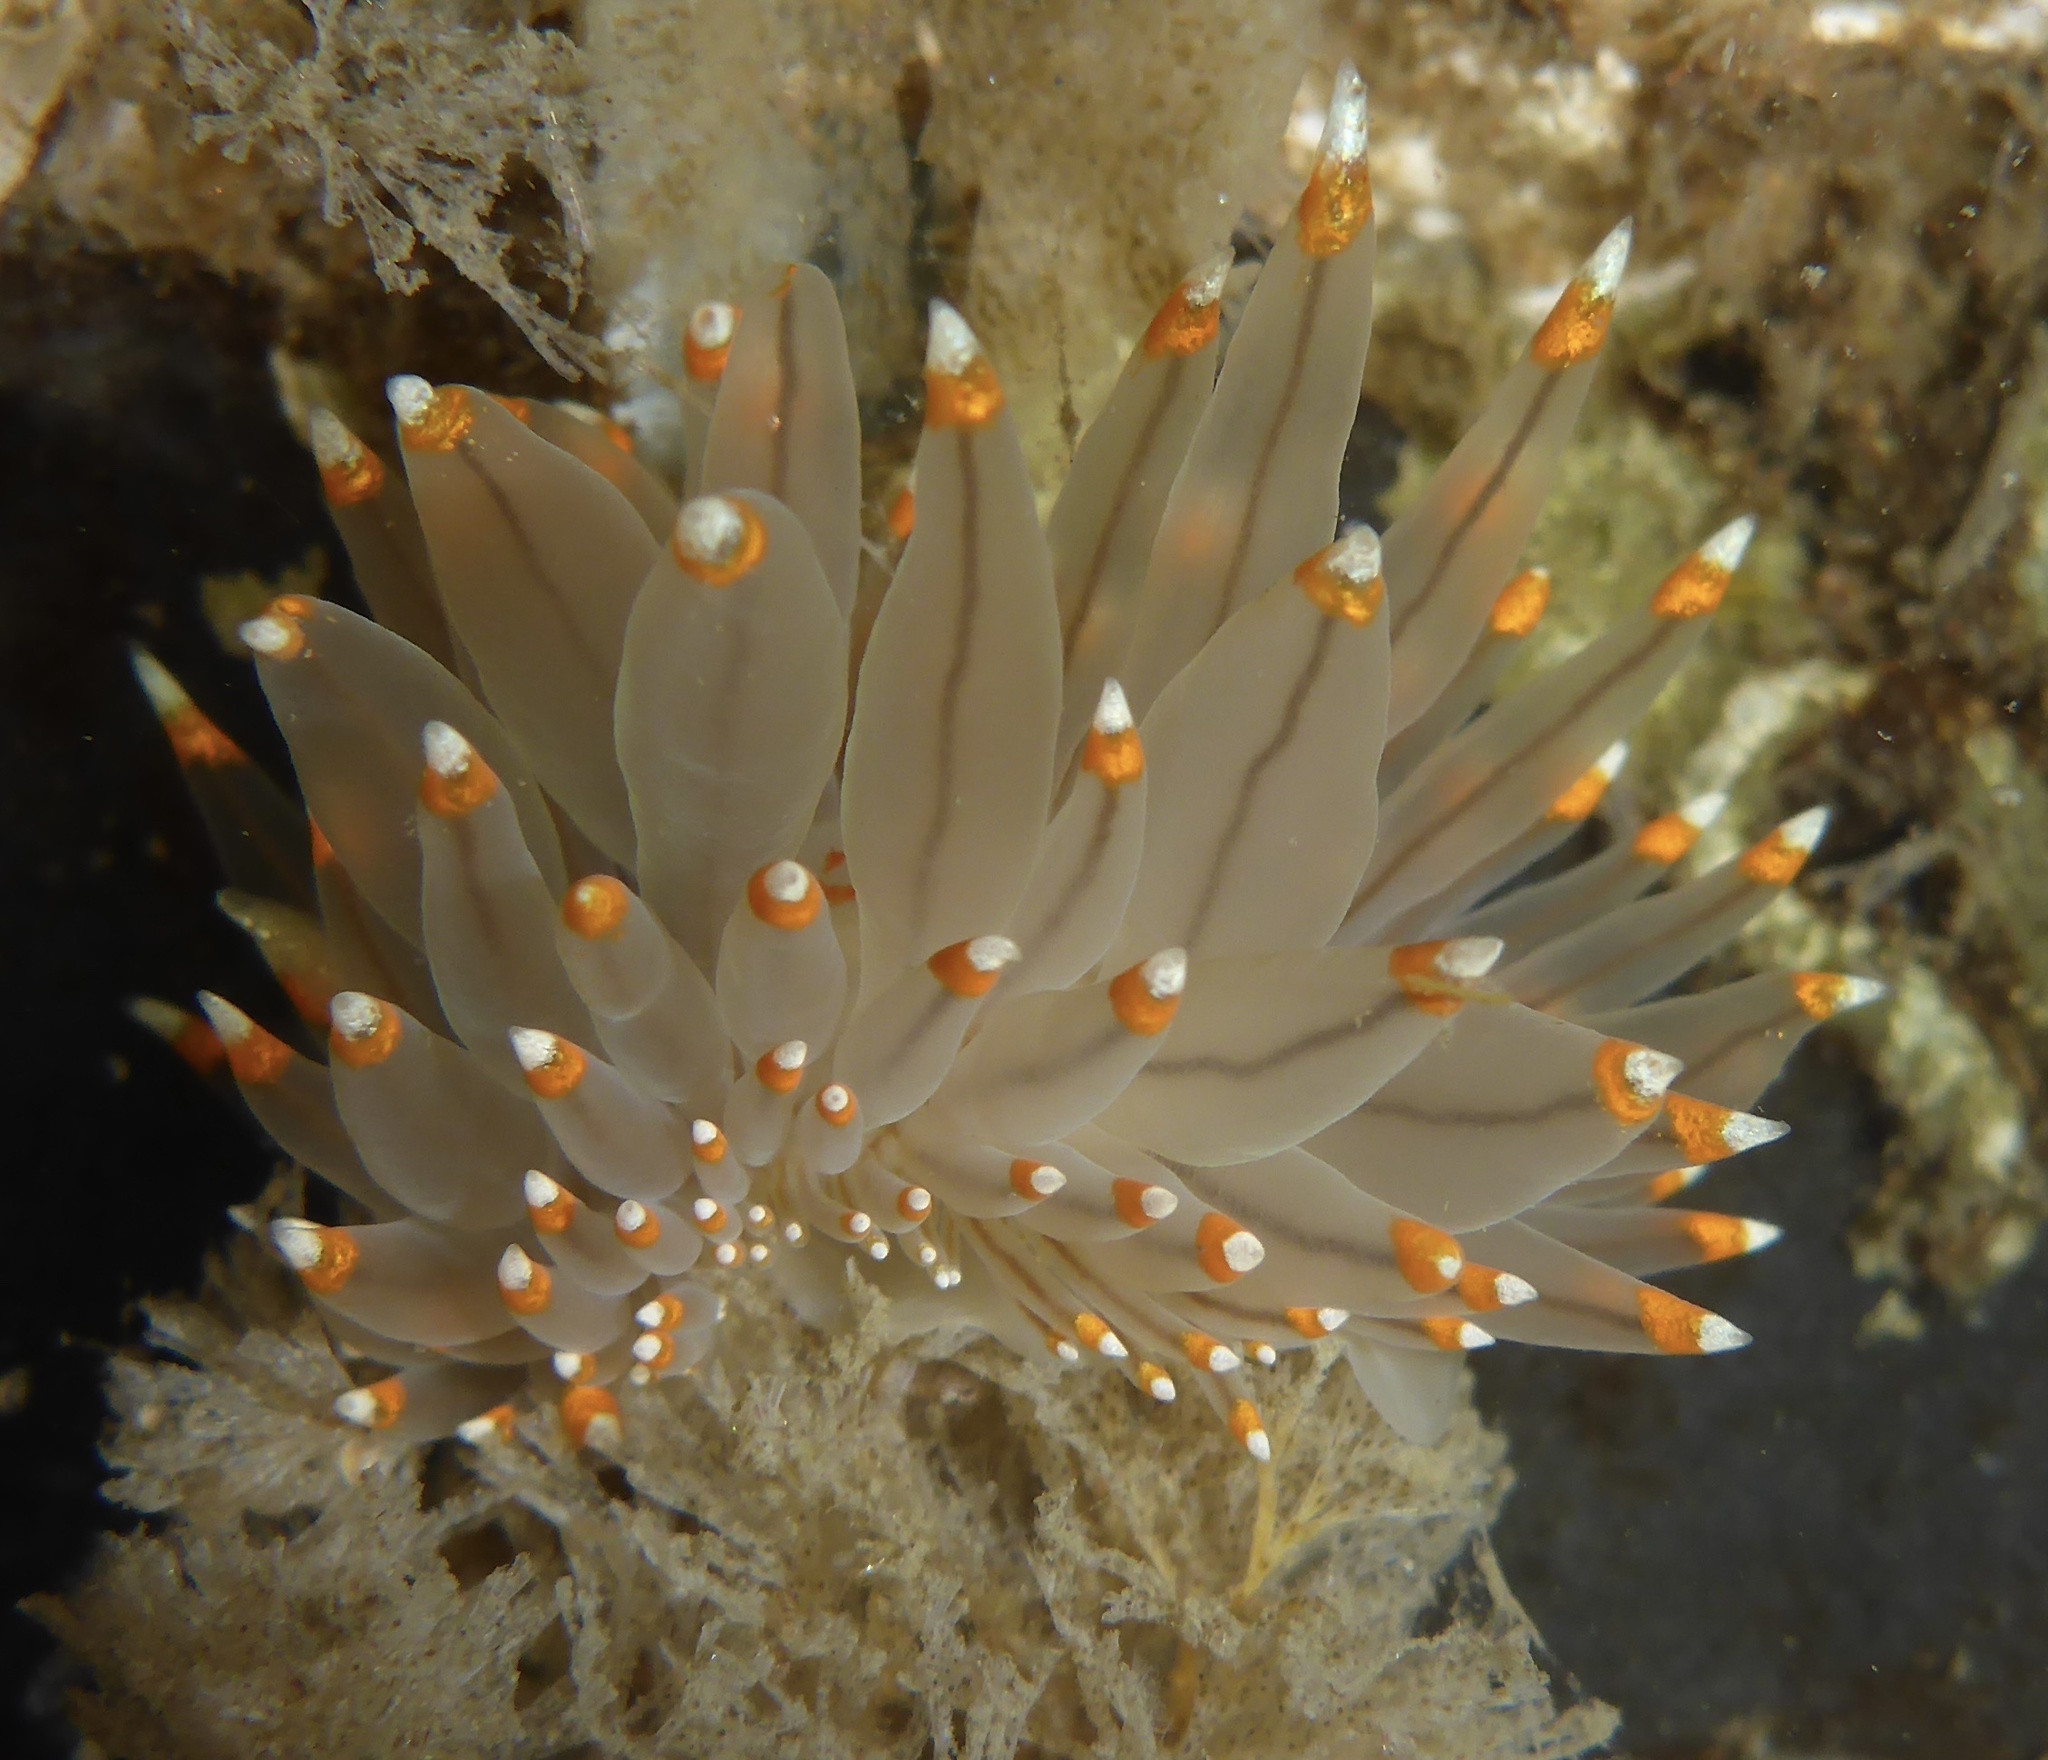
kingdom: Animalia
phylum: Mollusca
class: Gastropoda
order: Nudibranchia
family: Janolidae
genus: Antiopella
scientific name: Antiopella fusca
